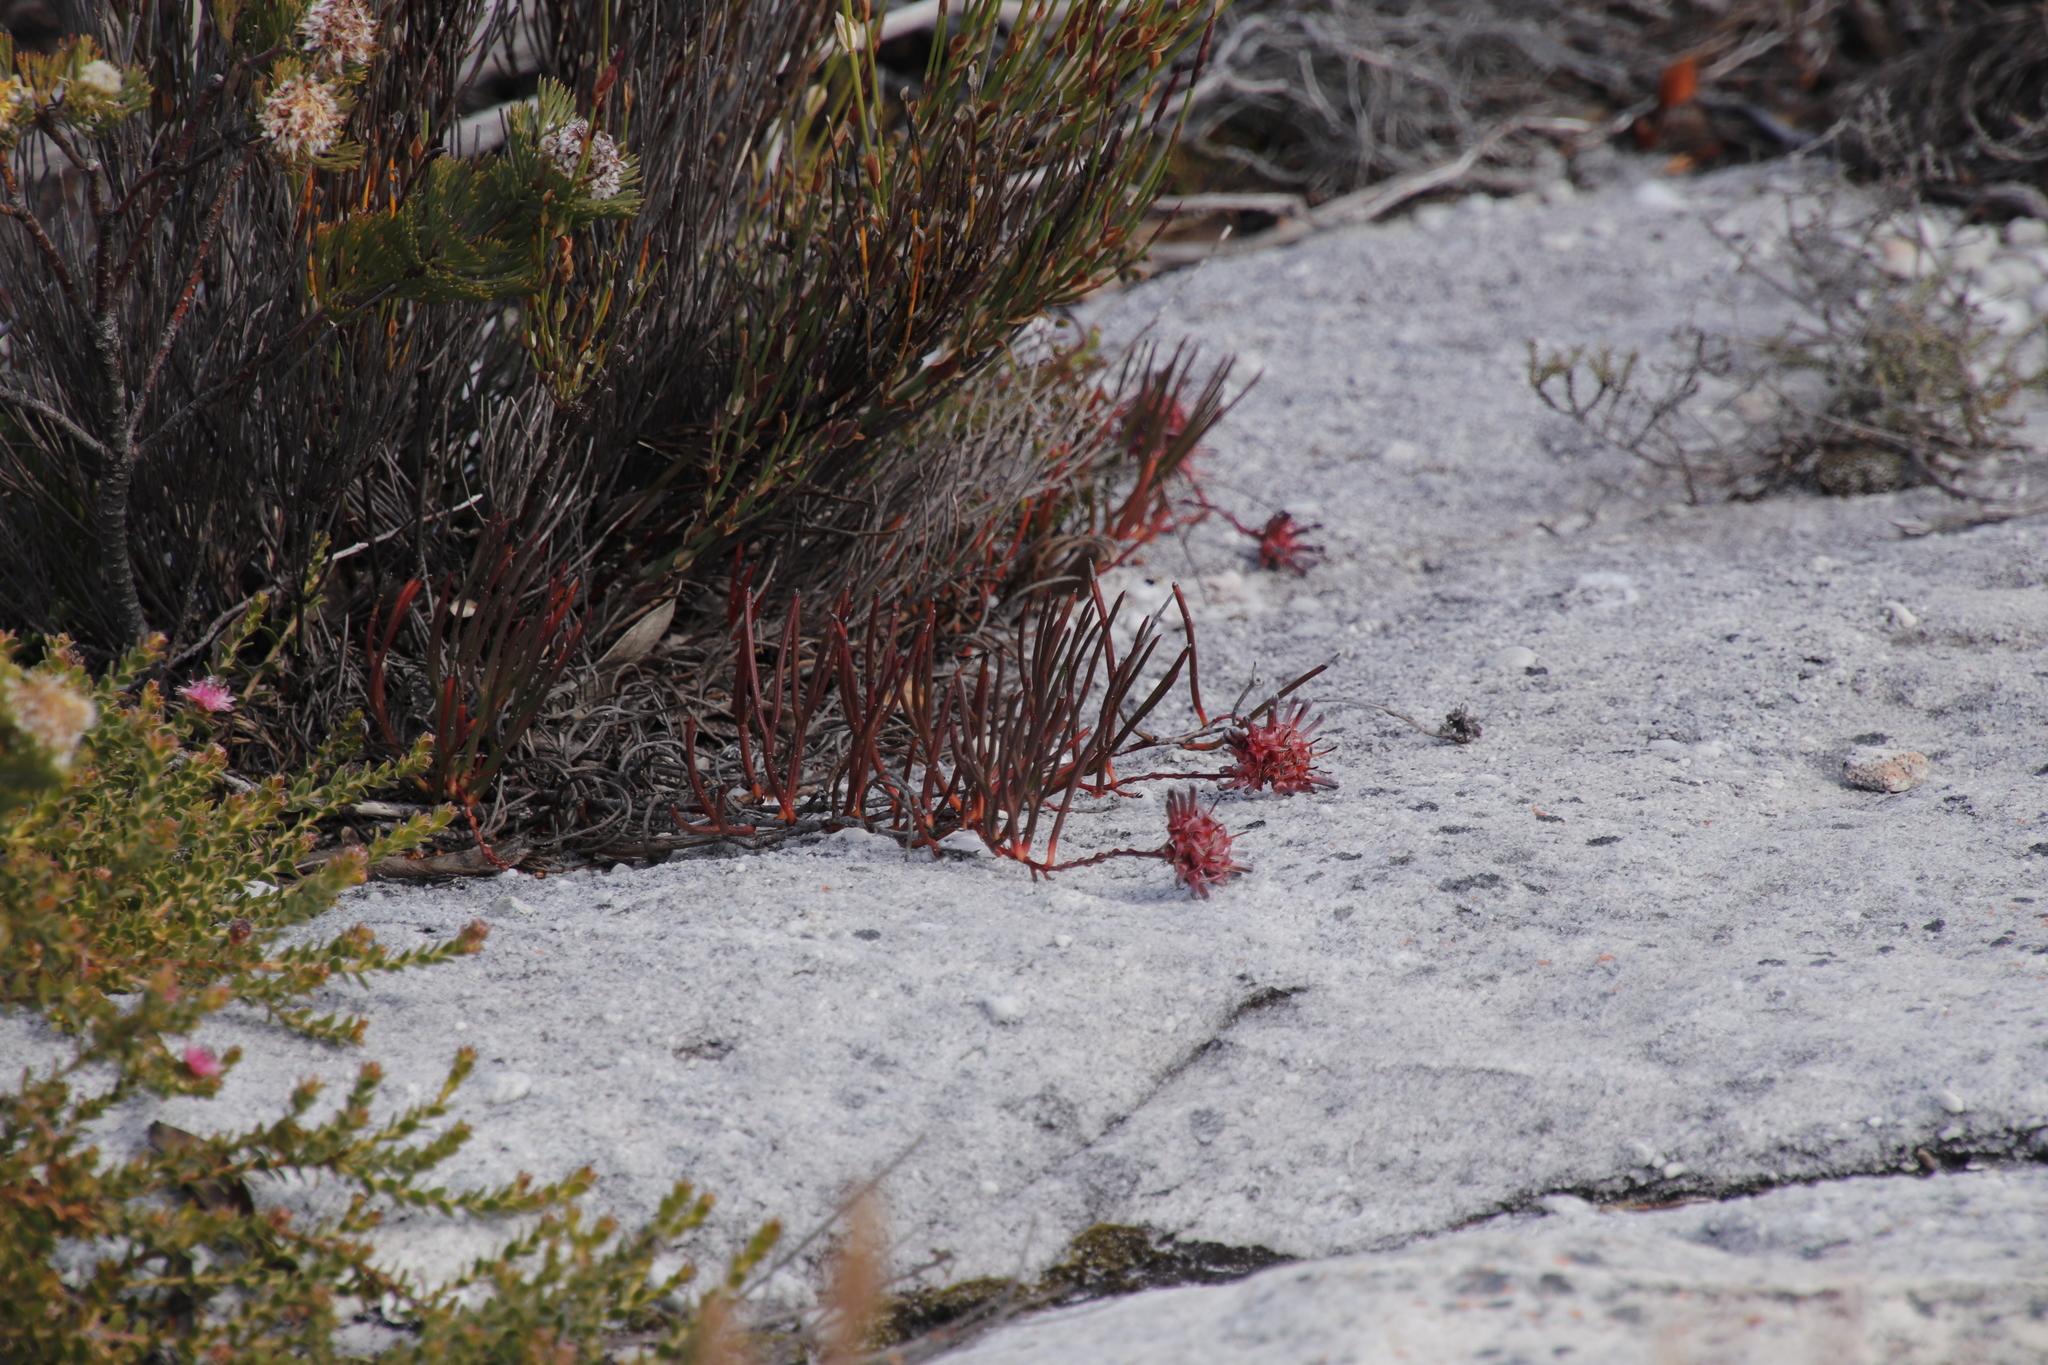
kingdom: Plantae
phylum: Tracheophyta
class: Magnoliopsida
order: Proteales
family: Proteaceae
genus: Serruria
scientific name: Serruria decumbens
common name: Peninsula spiderhead
